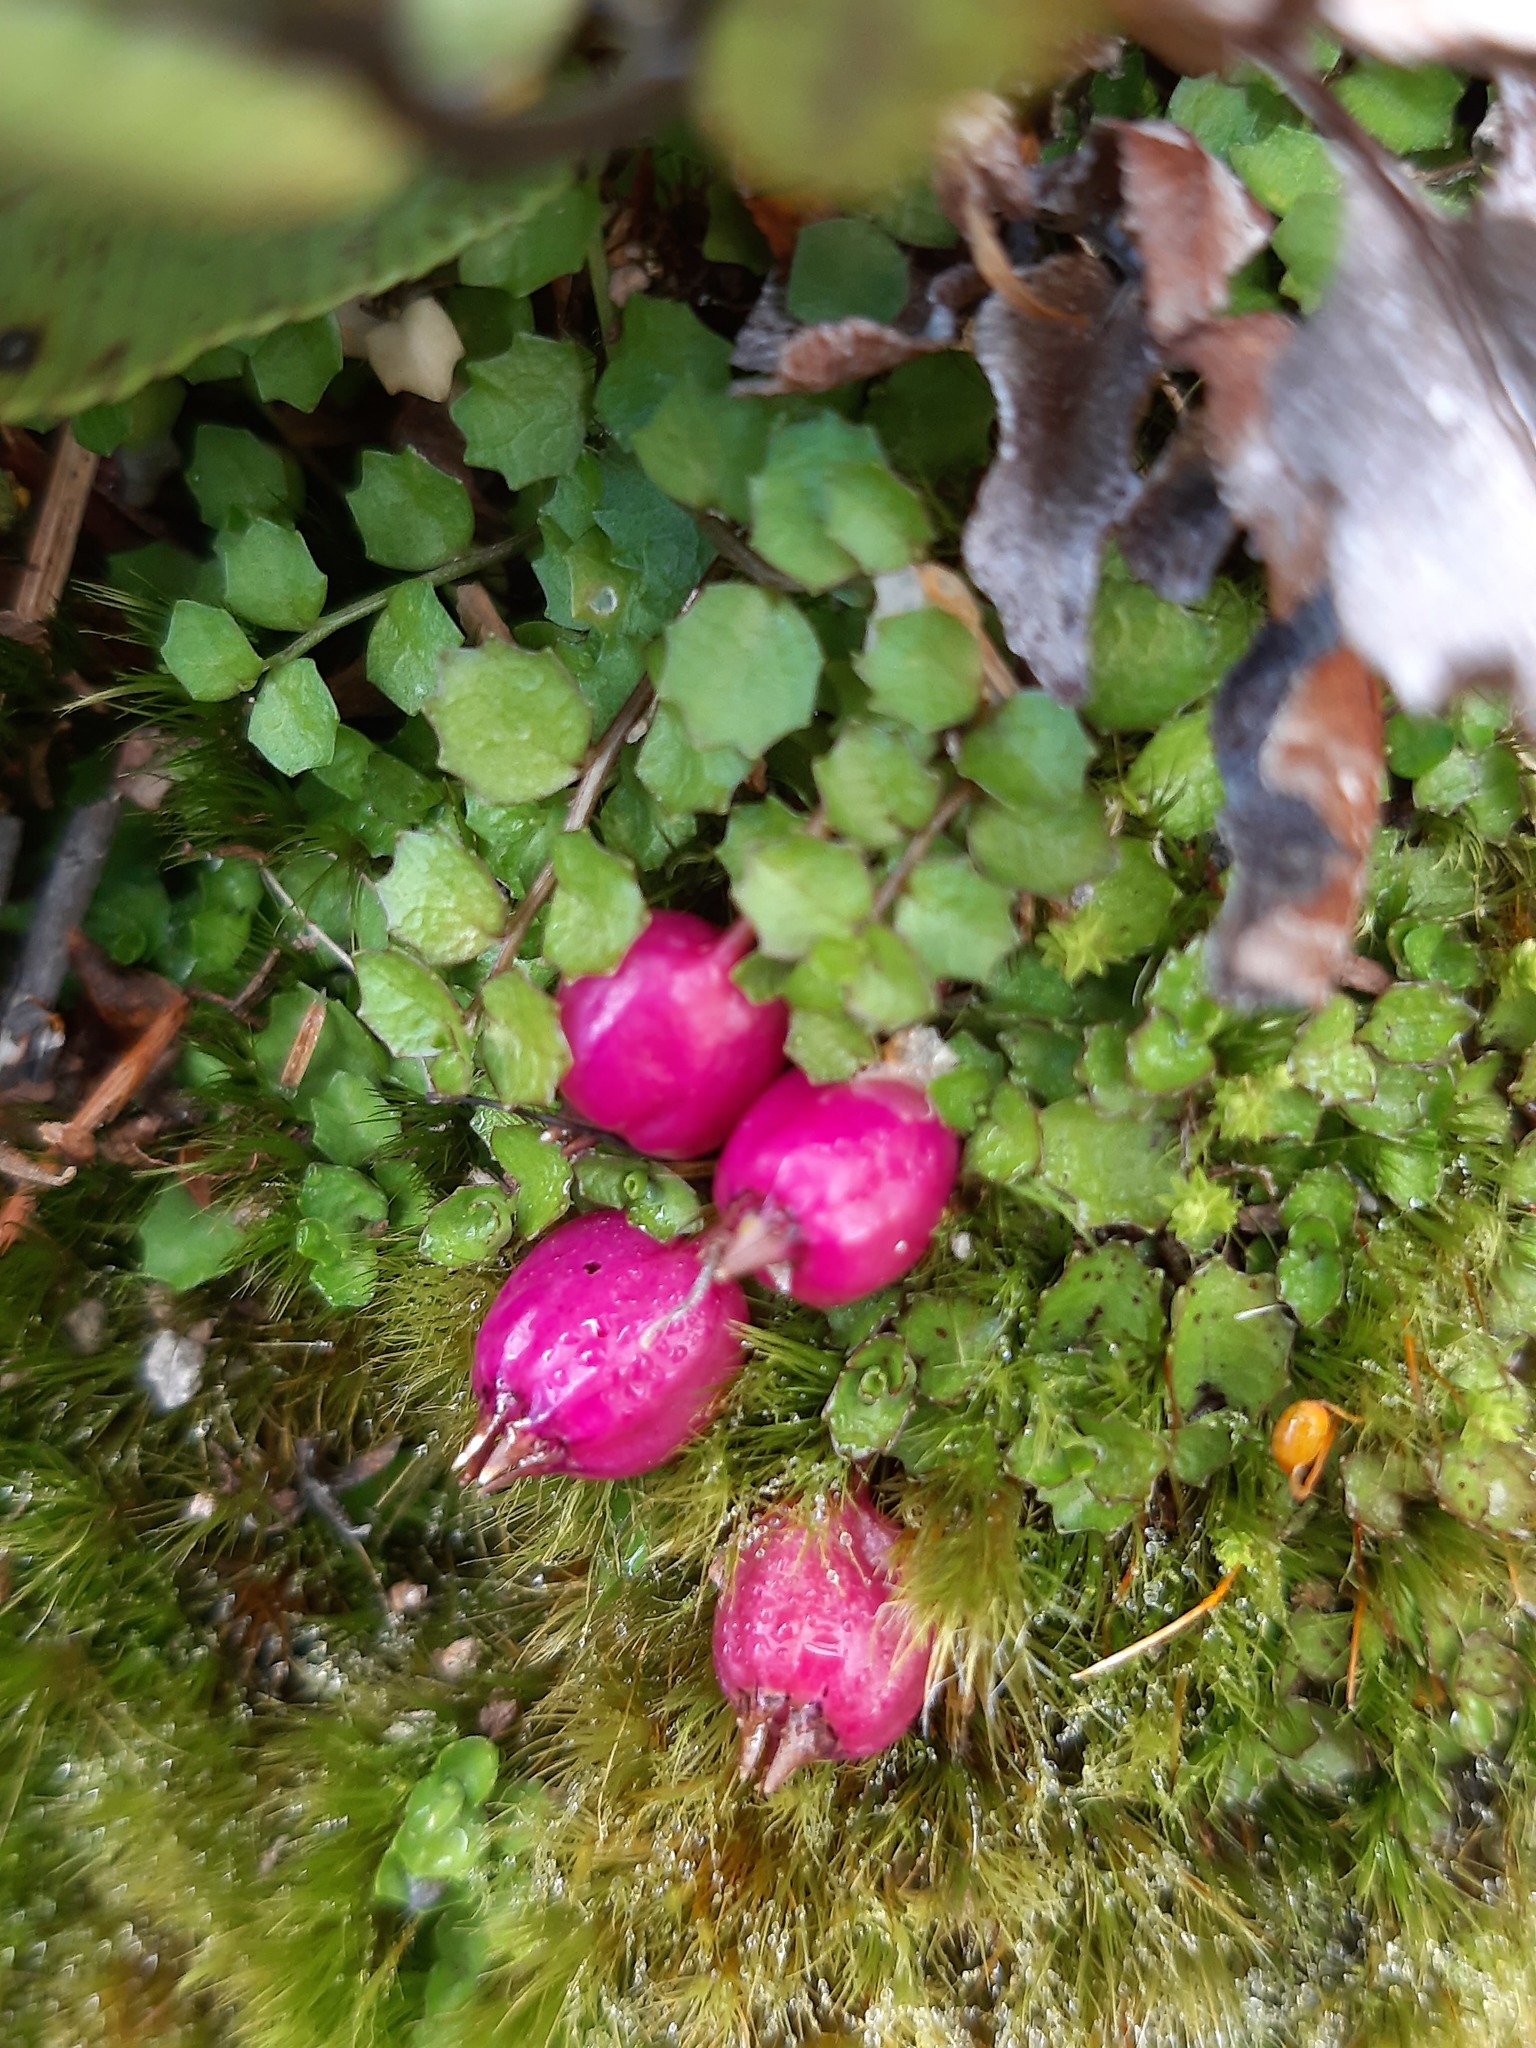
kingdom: Plantae
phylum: Tracheophyta
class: Magnoliopsida
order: Asterales
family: Campanulaceae
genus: Lobelia
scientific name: Lobelia angulata
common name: Lawn lobelia
